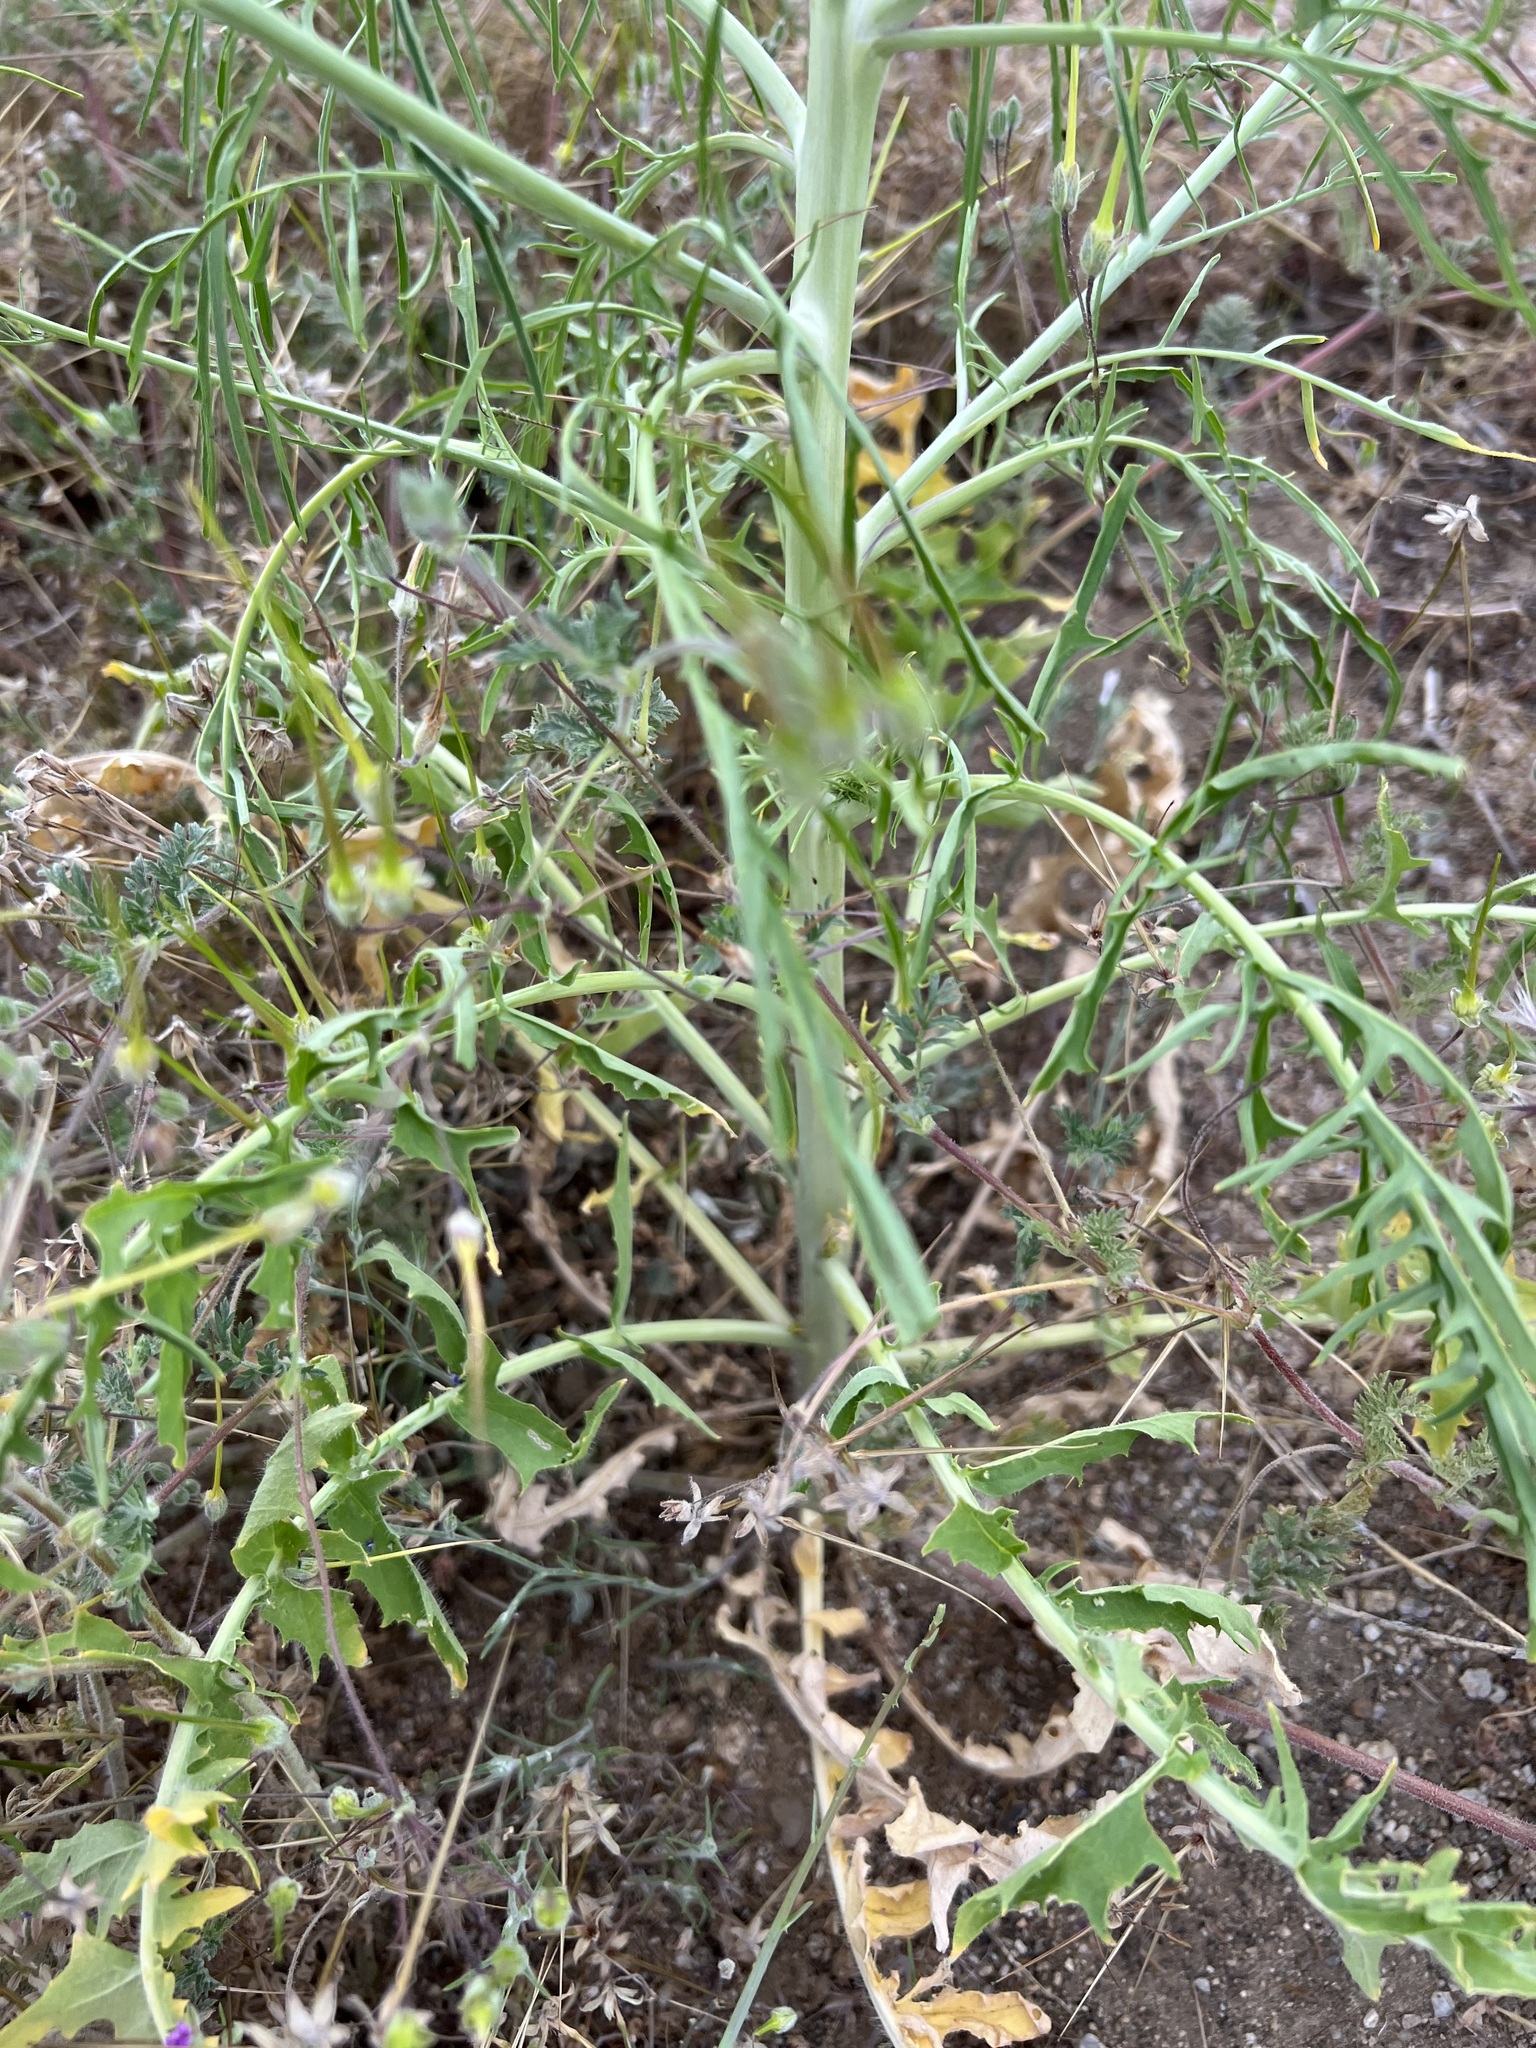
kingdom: Plantae
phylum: Tracheophyta
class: Magnoliopsida
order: Brassicales
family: Brassicaceae
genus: Sisymbrium
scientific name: Sisymbrium altissimum
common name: Tall rocket
